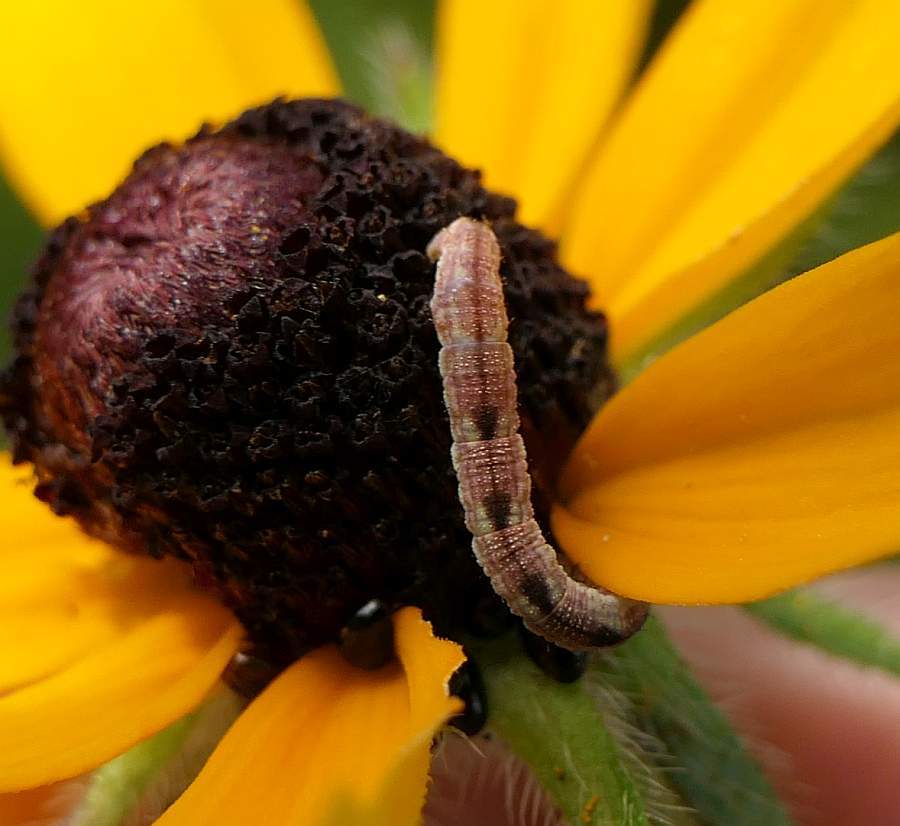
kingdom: Animalia
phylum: Arthropoda
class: Insecta
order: Lepidoptera
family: Geometridae
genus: Eupithecia
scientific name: Eupithecia miserulata
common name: Common eupithecia
